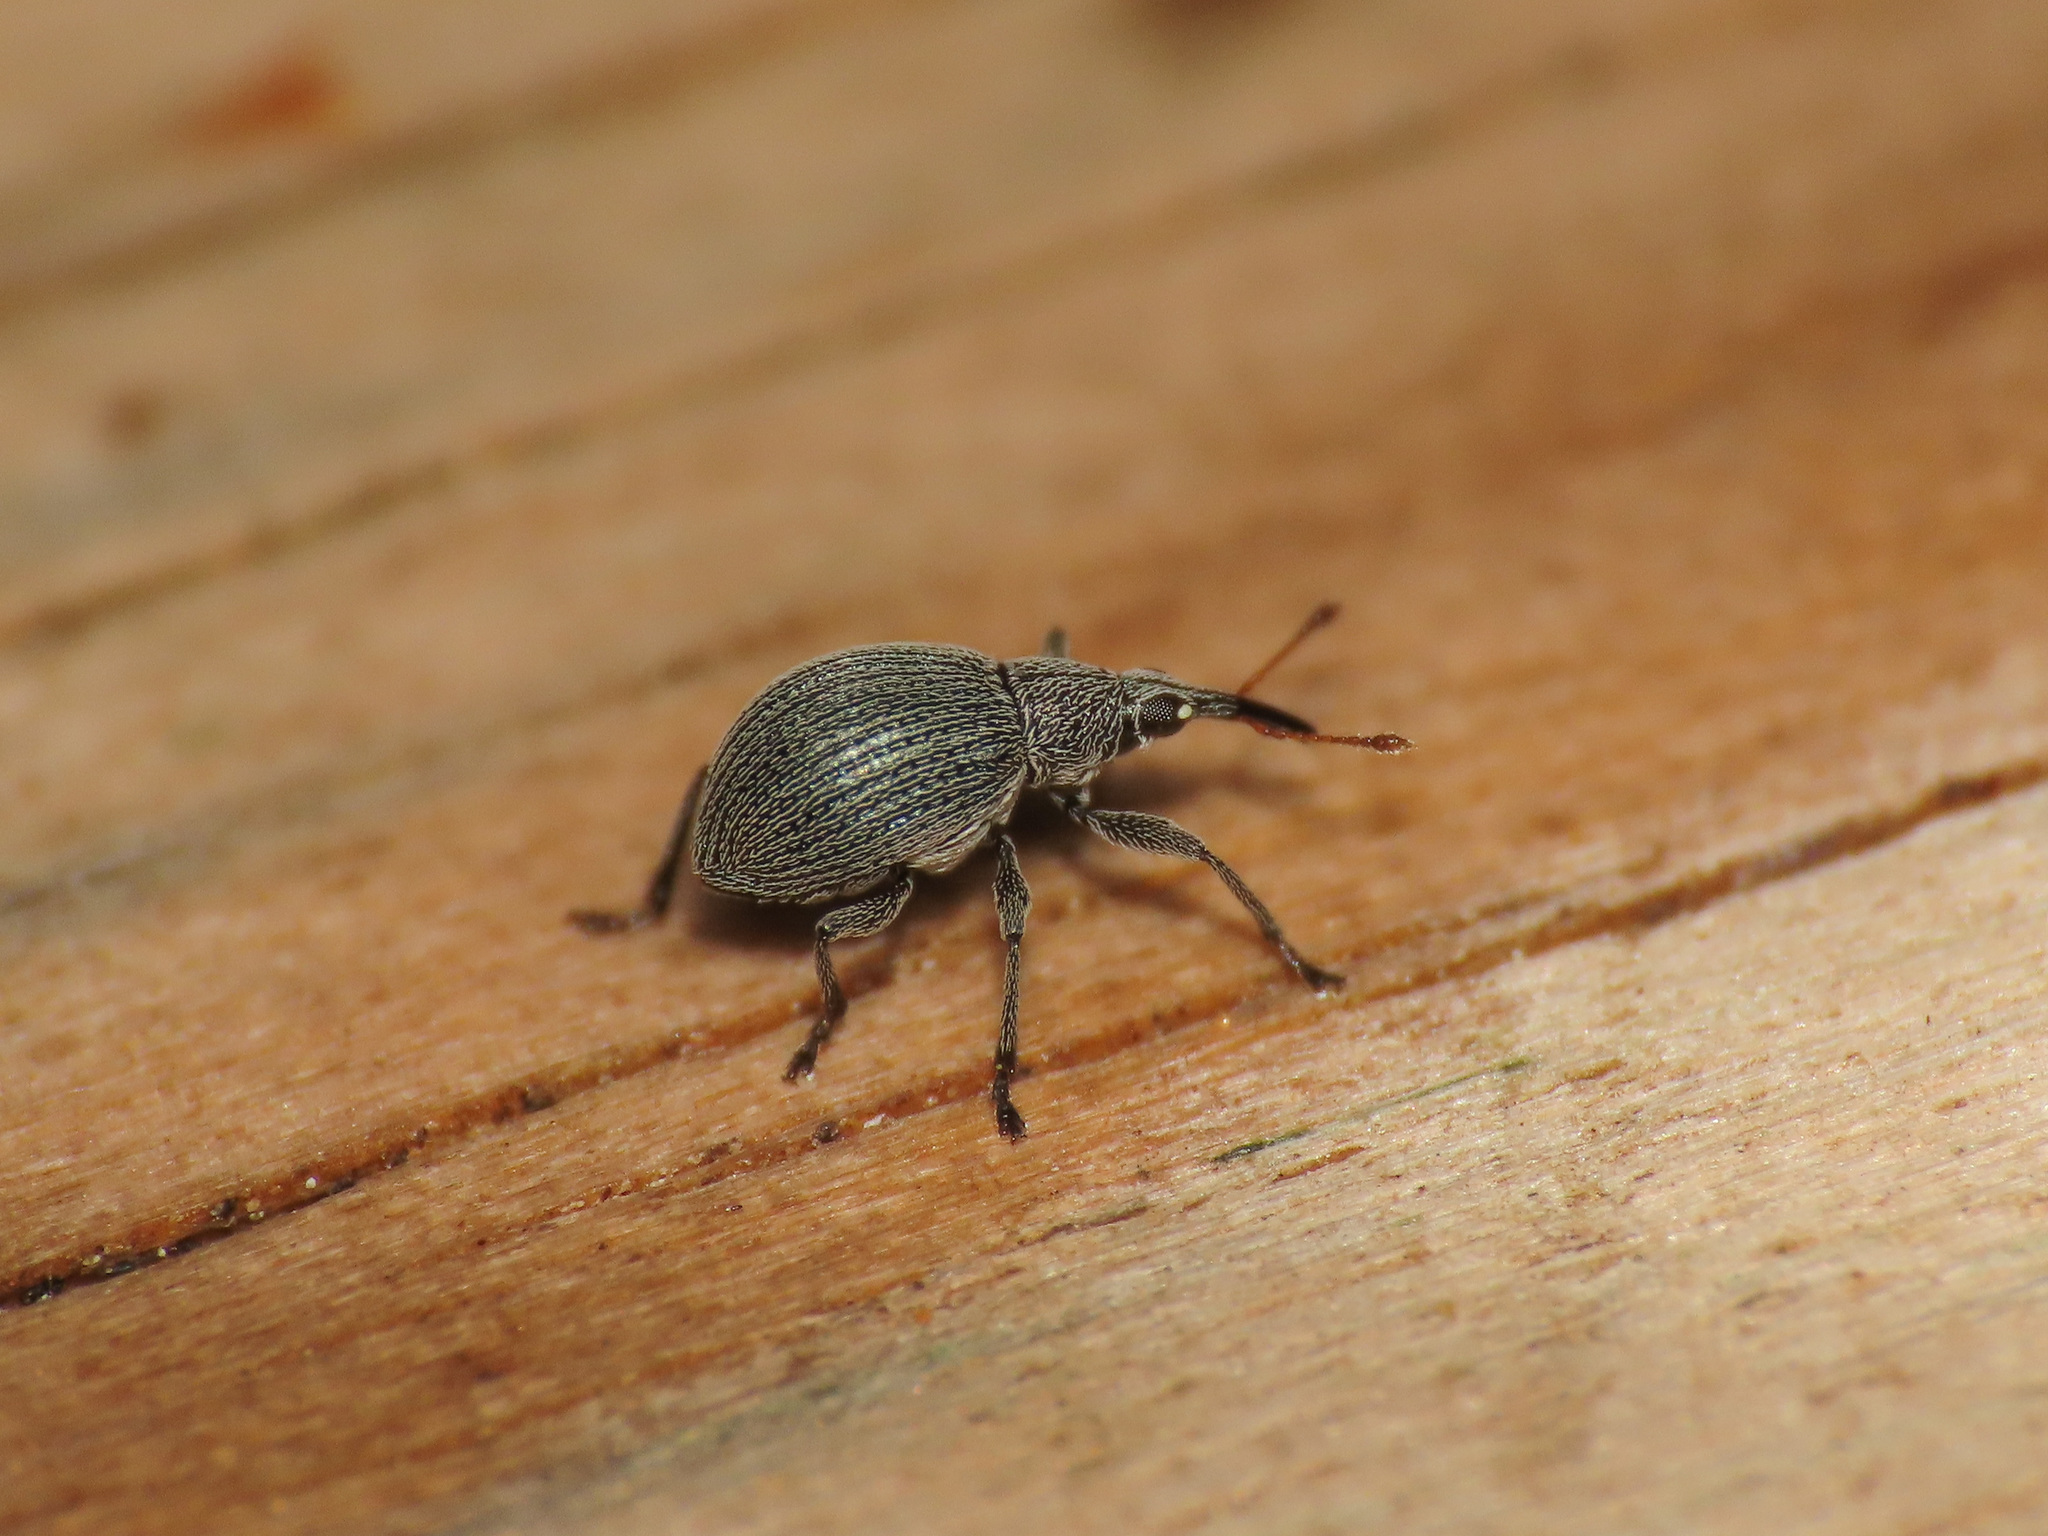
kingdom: Animalia
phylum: Arthropoda
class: Insecta
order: Coleoptera
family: Brentidae
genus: Eutrichapion
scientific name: Eutrichapion ervi
